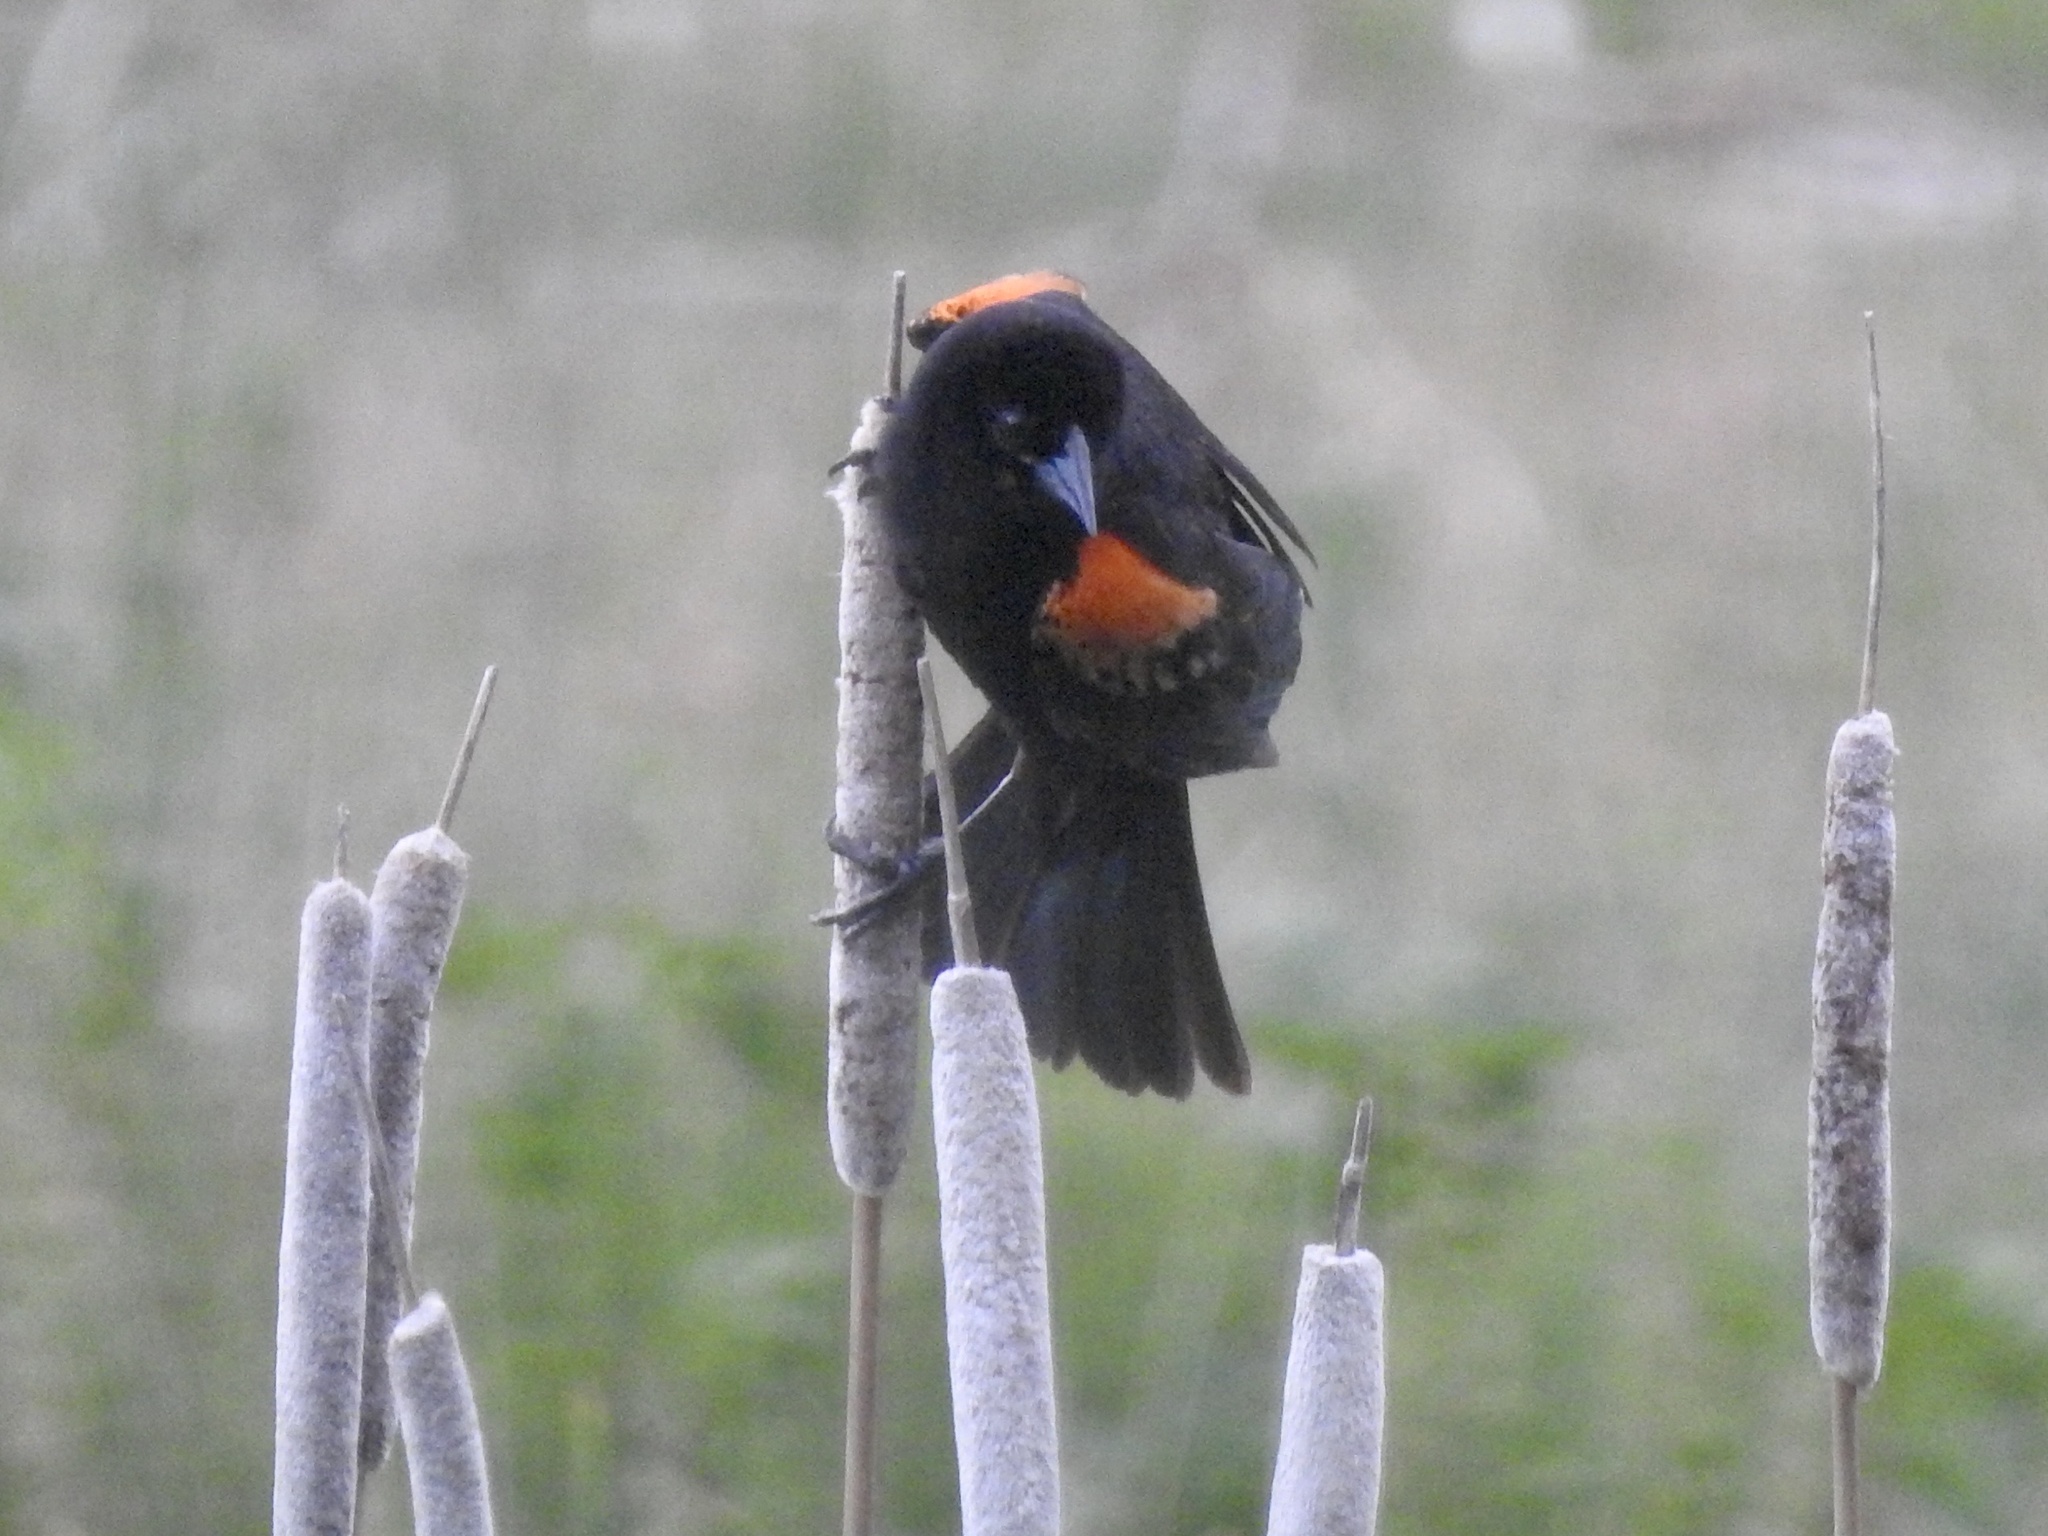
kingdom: Animalia
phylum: Chordata
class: Aves
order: Passeriformes
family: Icteridae
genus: Agelaius
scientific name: Agelaius phoeniceus
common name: Red-winged blackbird
